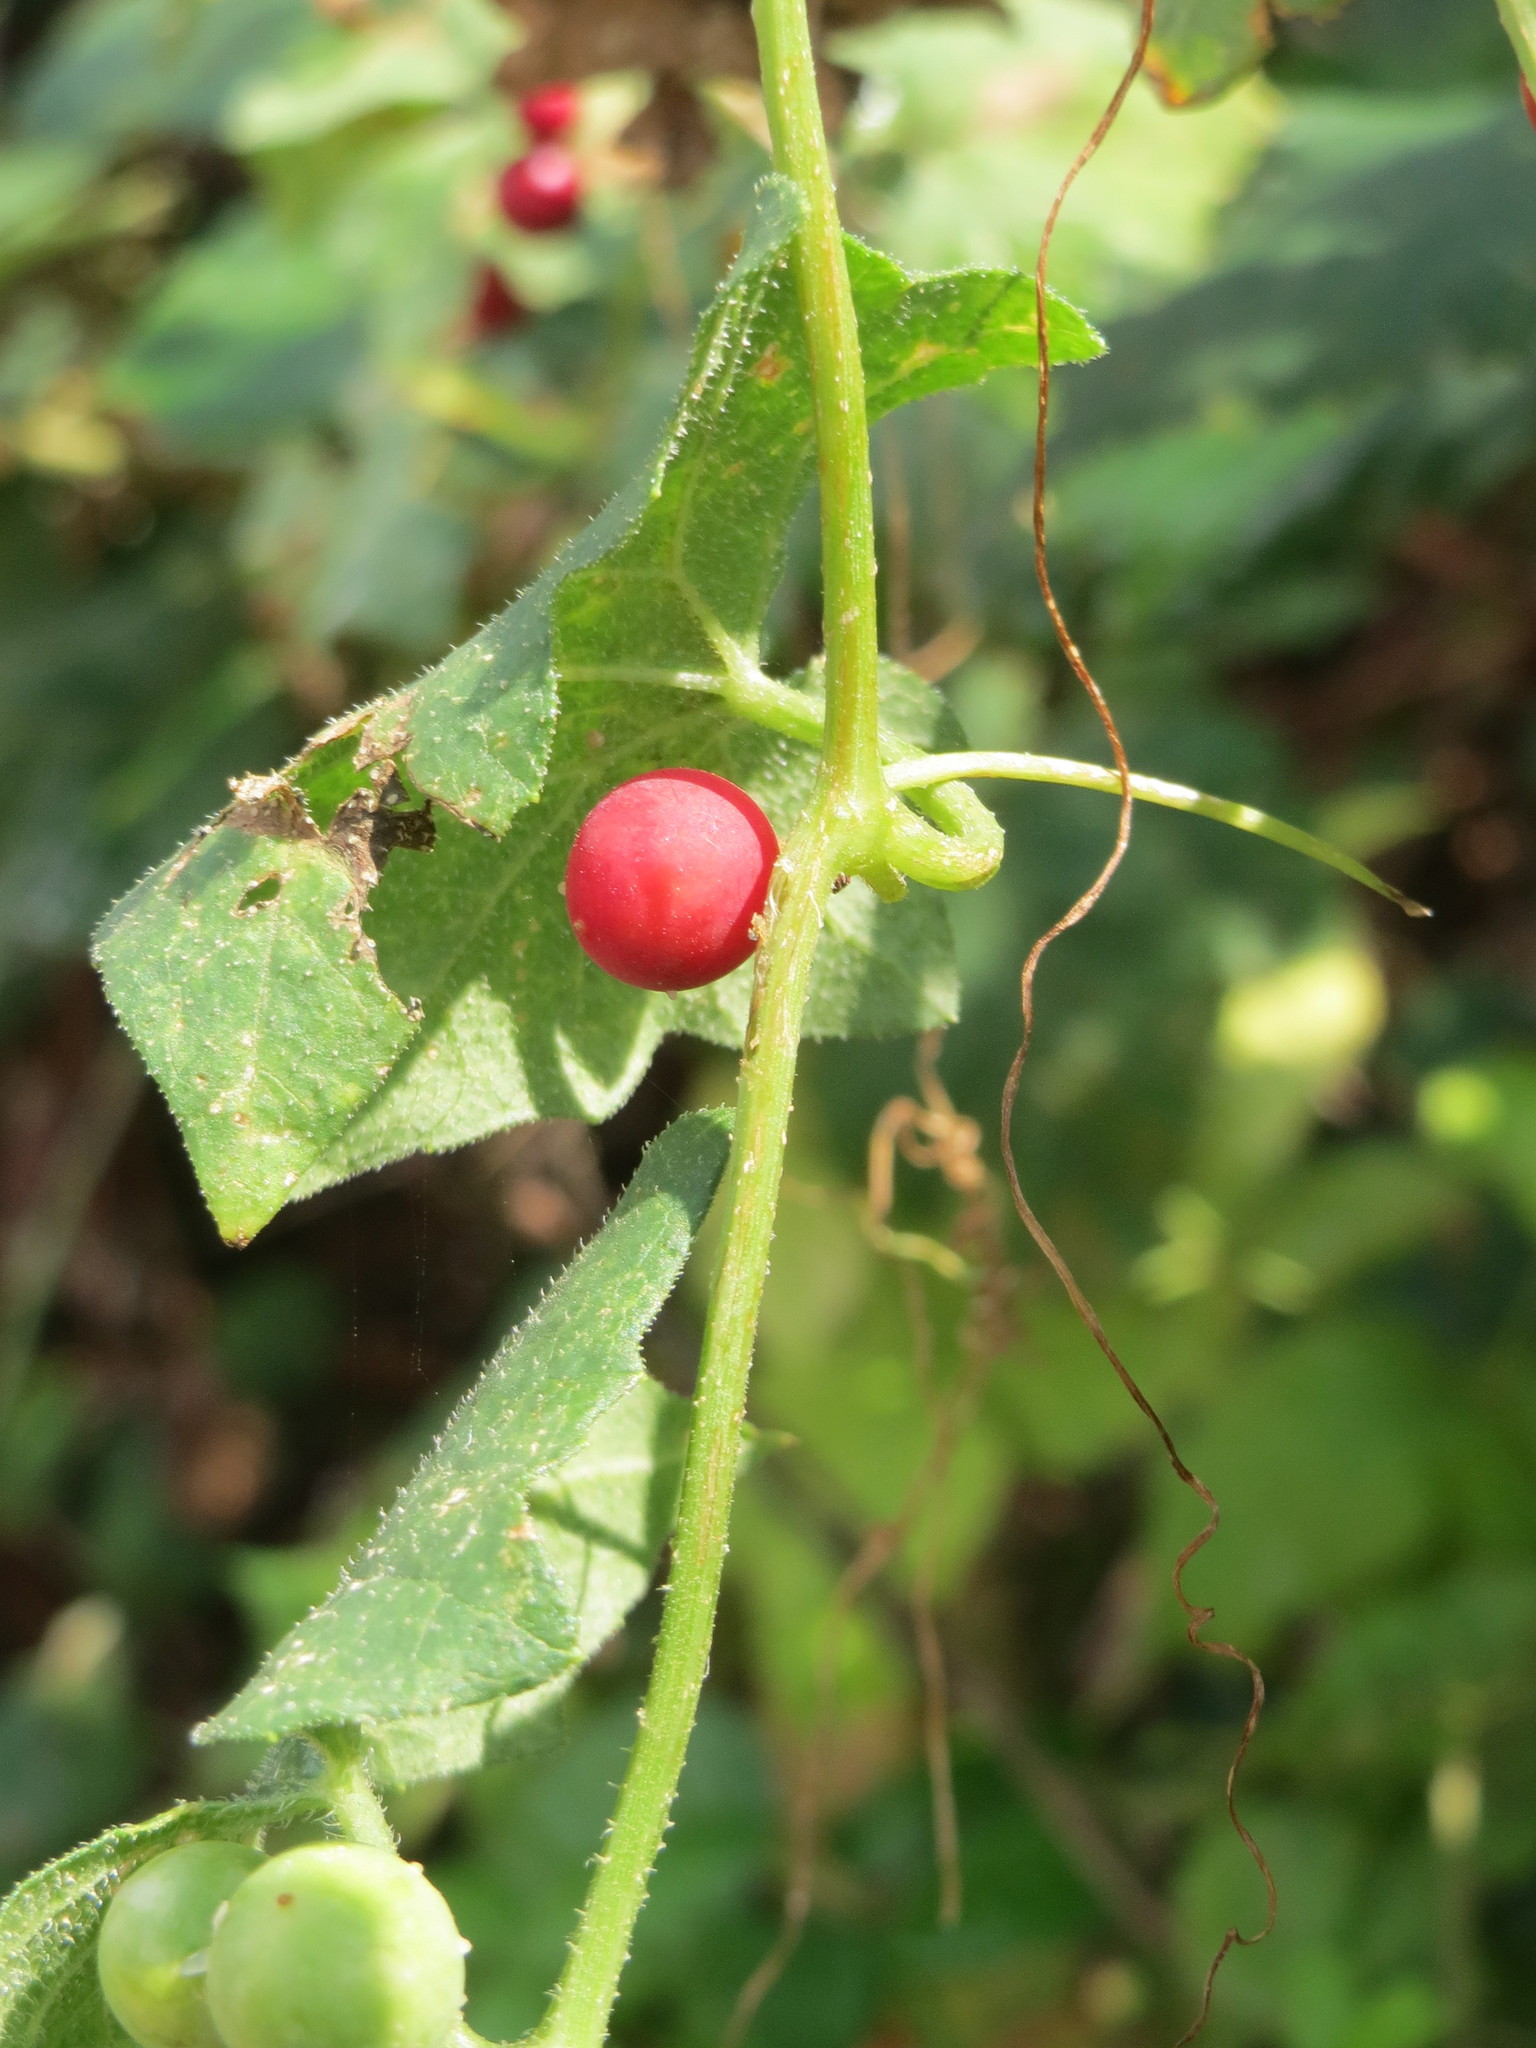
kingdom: Plantae
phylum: Tracheophyta
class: Magnoliopsida
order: Cucurbitales
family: Cucurbitaceae
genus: Bryonia
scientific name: Bryonia dioica
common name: White bryony
